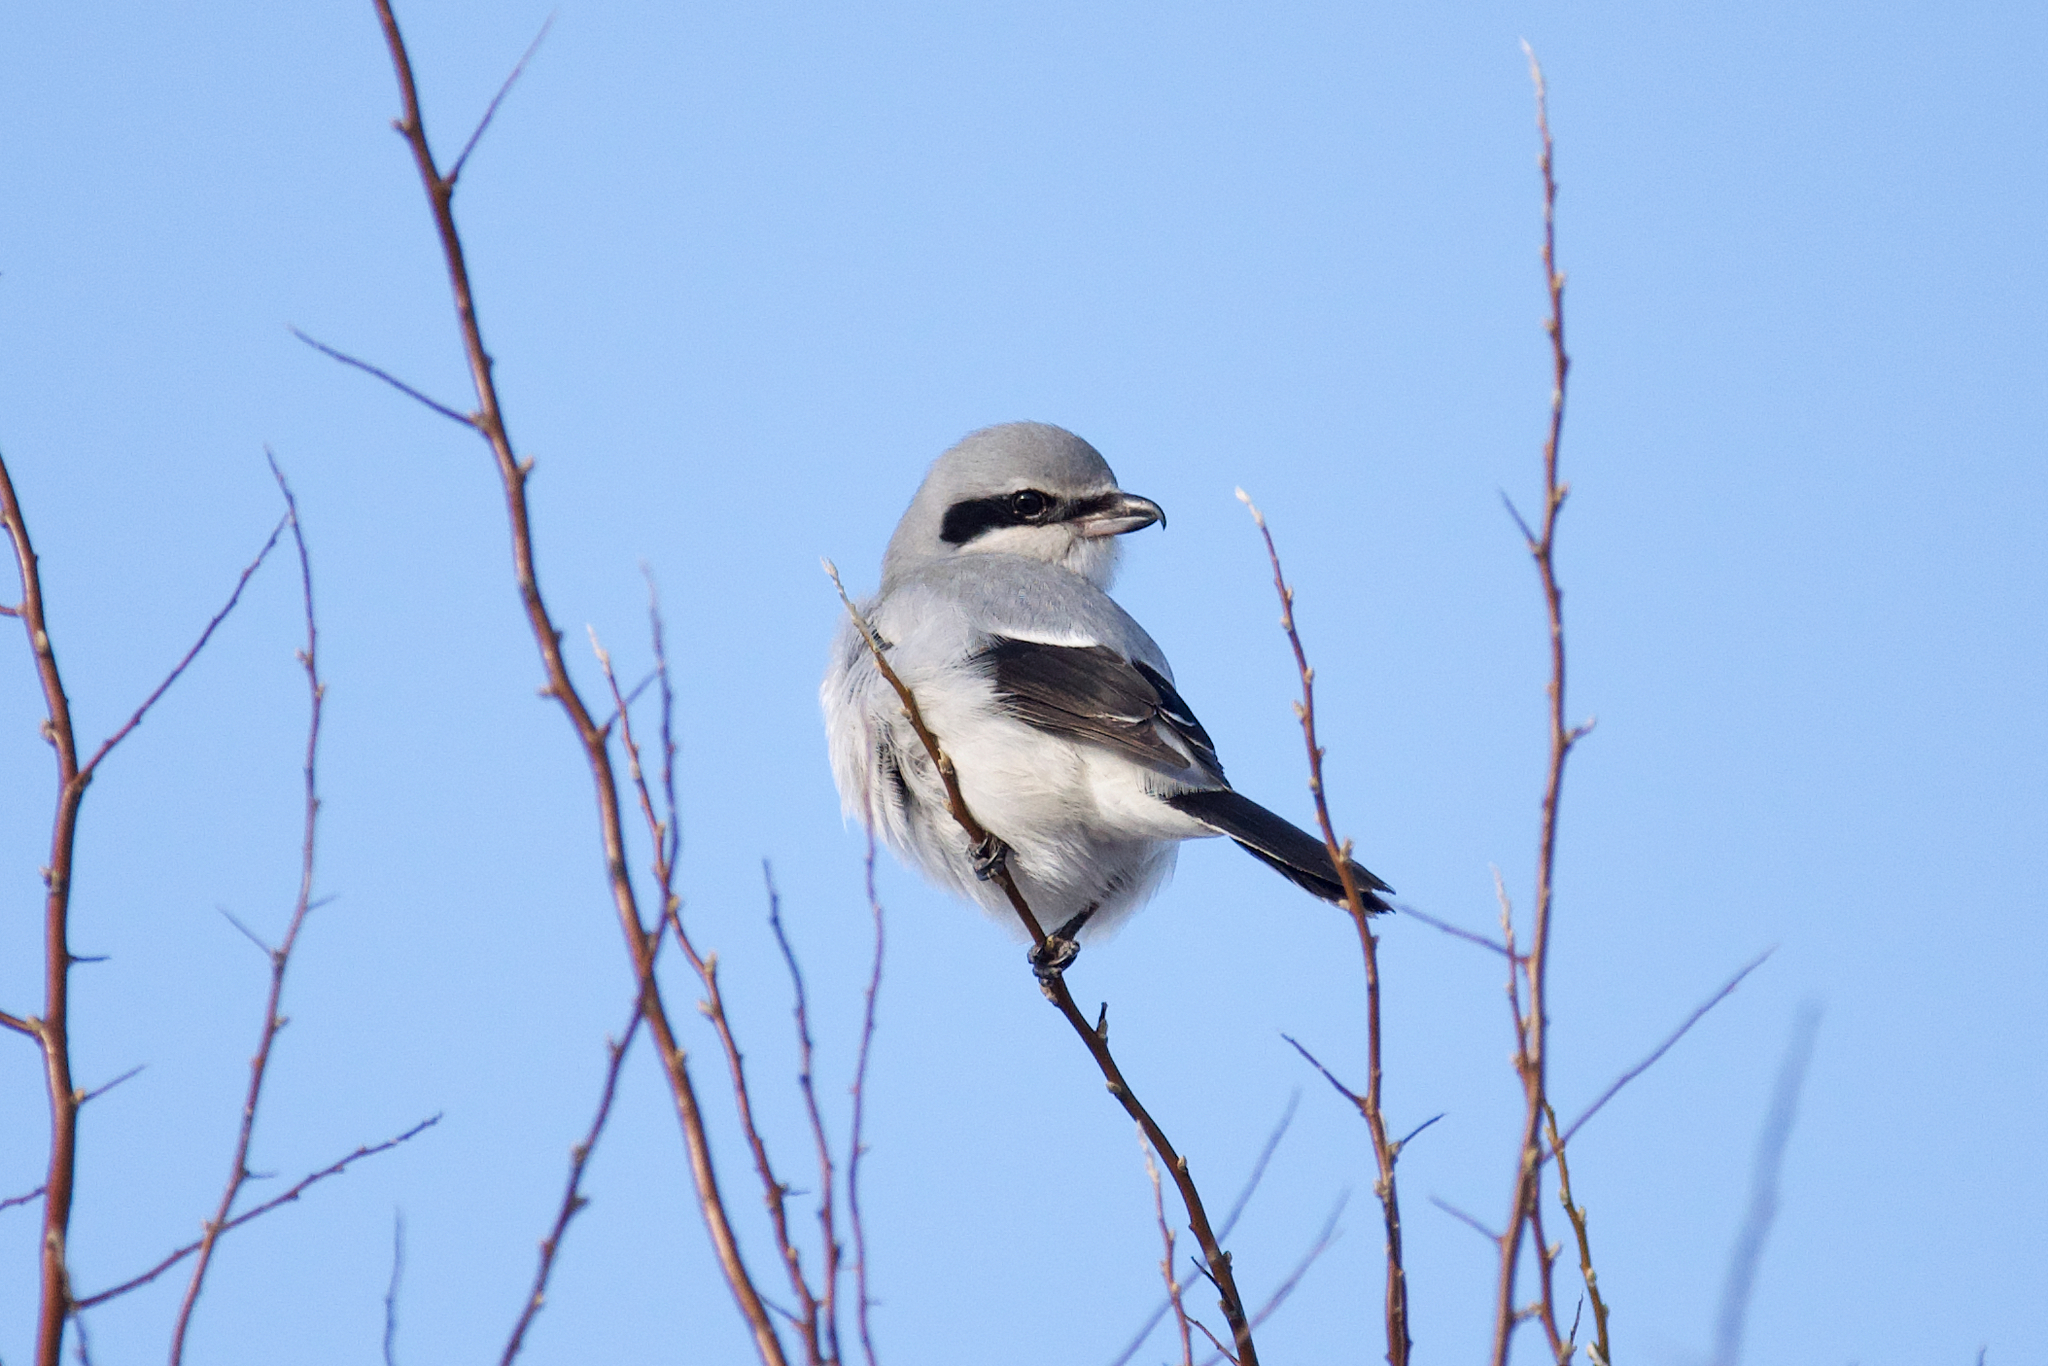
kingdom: Animalia
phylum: Chordata
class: Aves
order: Passeriformes
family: Laniidae
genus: Lanius
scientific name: Lanius borealis
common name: Northern shrike
